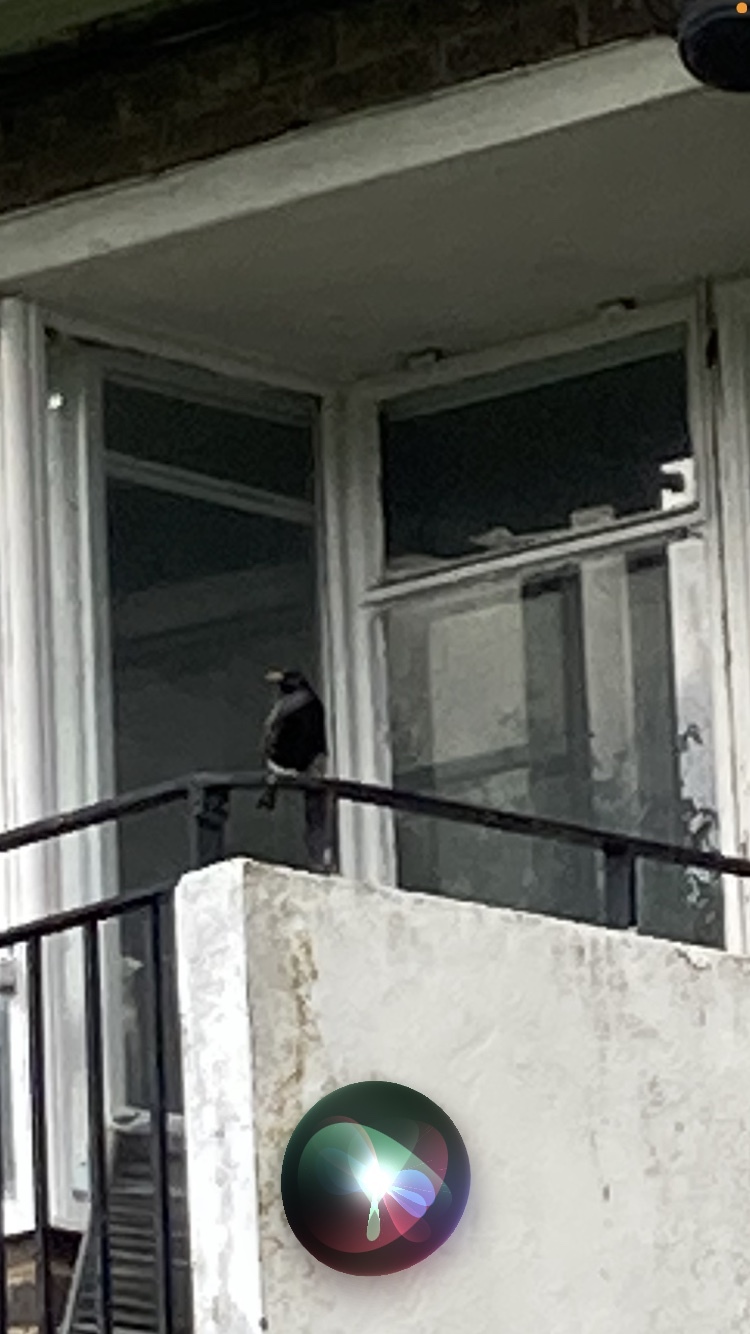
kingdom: Animalia
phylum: Chordata
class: Aves
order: Passeriformes
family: Sturnidae
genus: Sturnus
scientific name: Sturnus vulgaris
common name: Common starling
